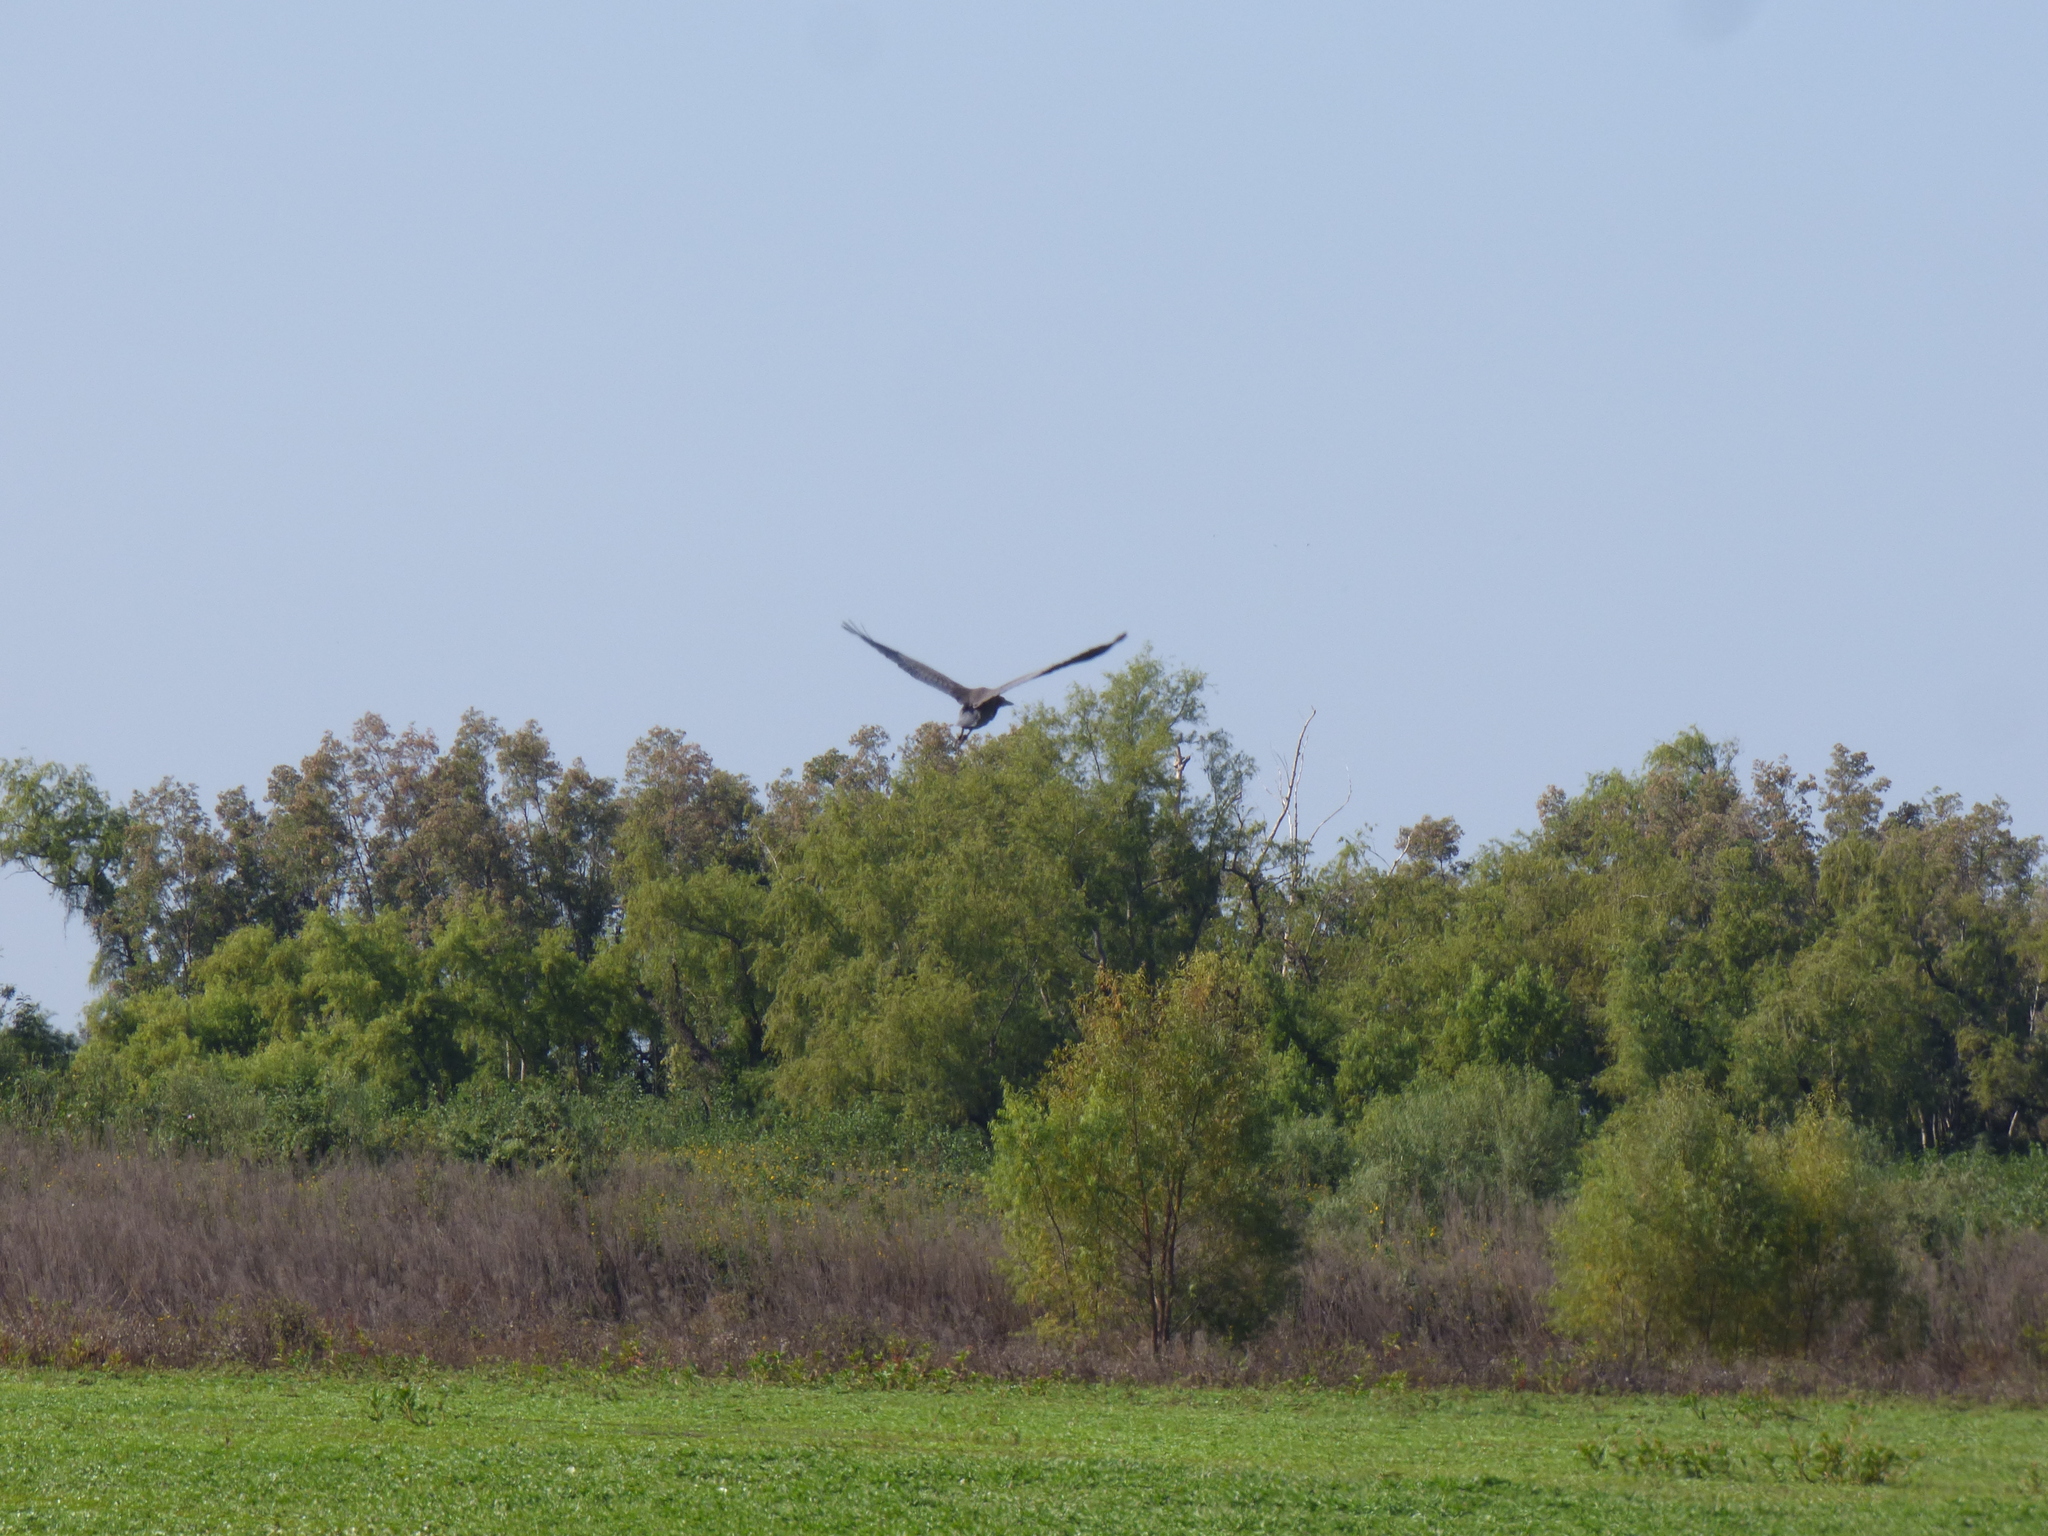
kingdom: Animalia
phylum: Chordata
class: Aves
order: Pelecaniformes
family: Ardeidae
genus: Tigrisoma
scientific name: Tigrisoma lineatum
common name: Rufescent tiger-heron
